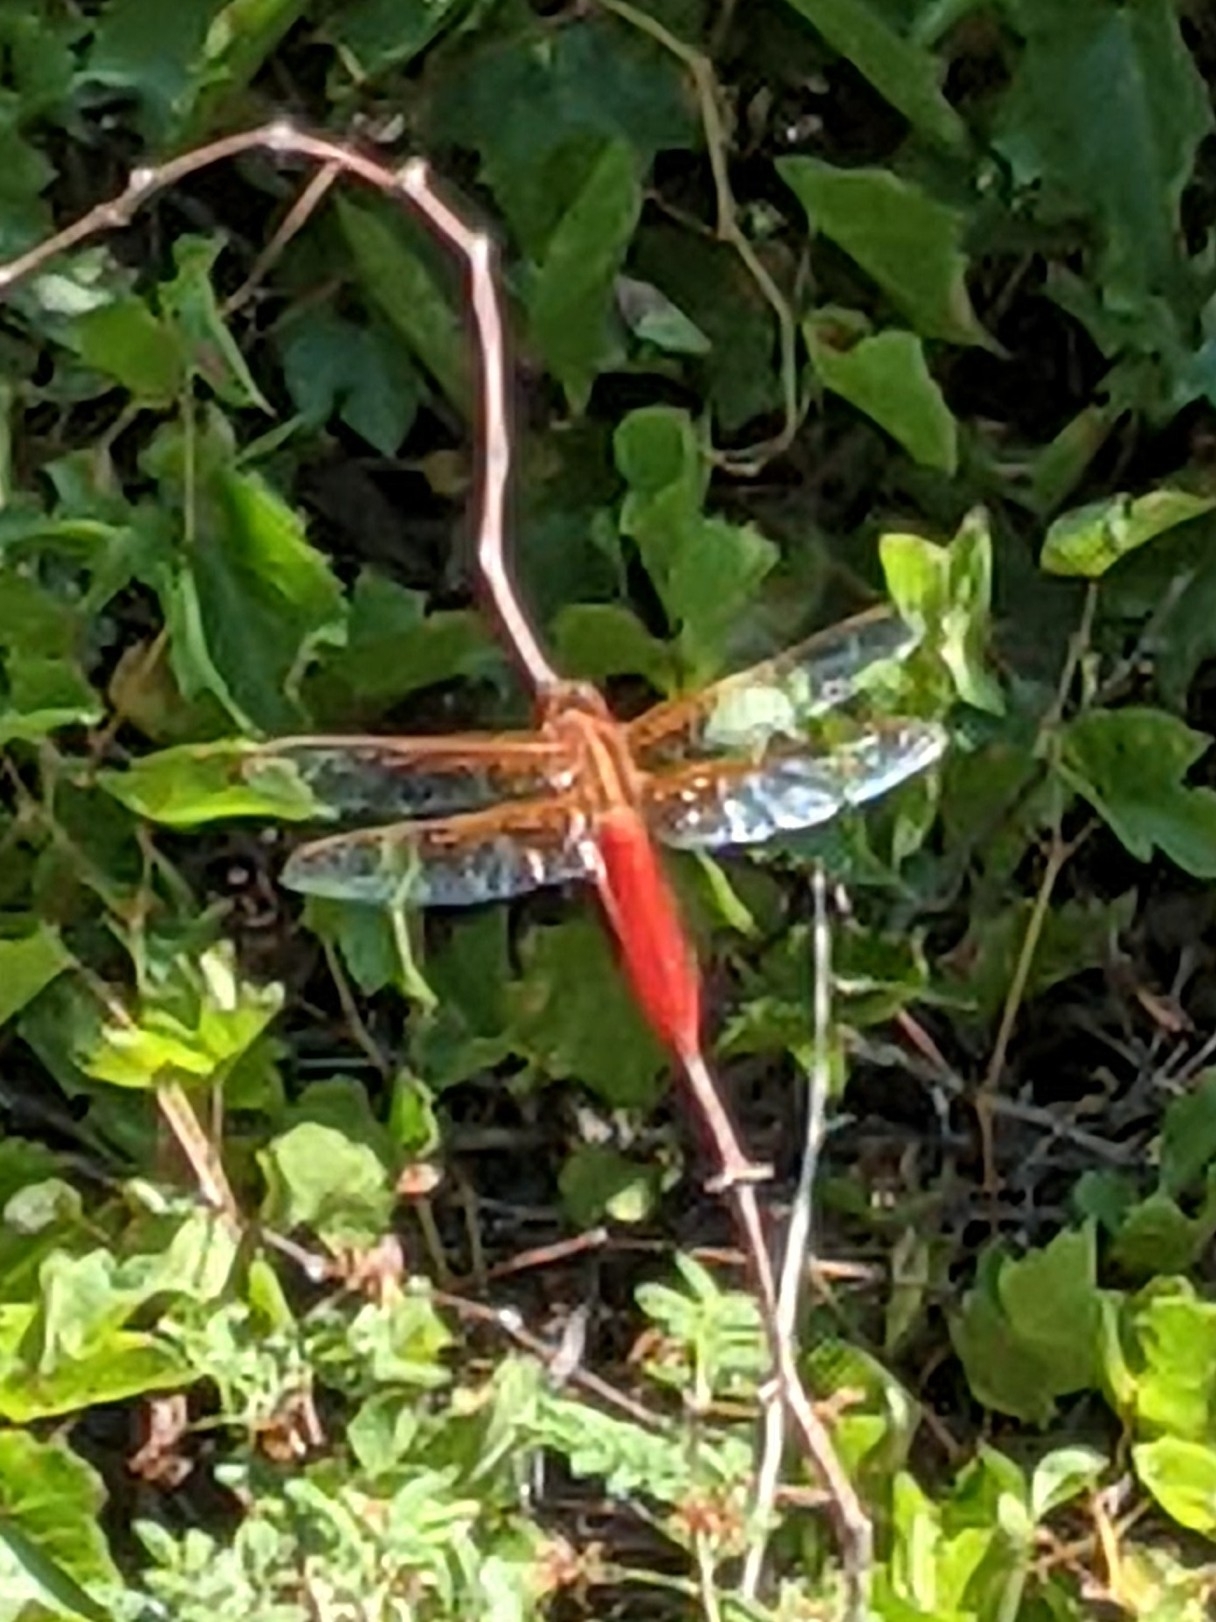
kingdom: Animalia
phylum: Arthropoda
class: Insecta
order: Odonata
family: Libellulidae
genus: Libellula
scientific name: Libellula croceipennis
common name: Neon skimmer
